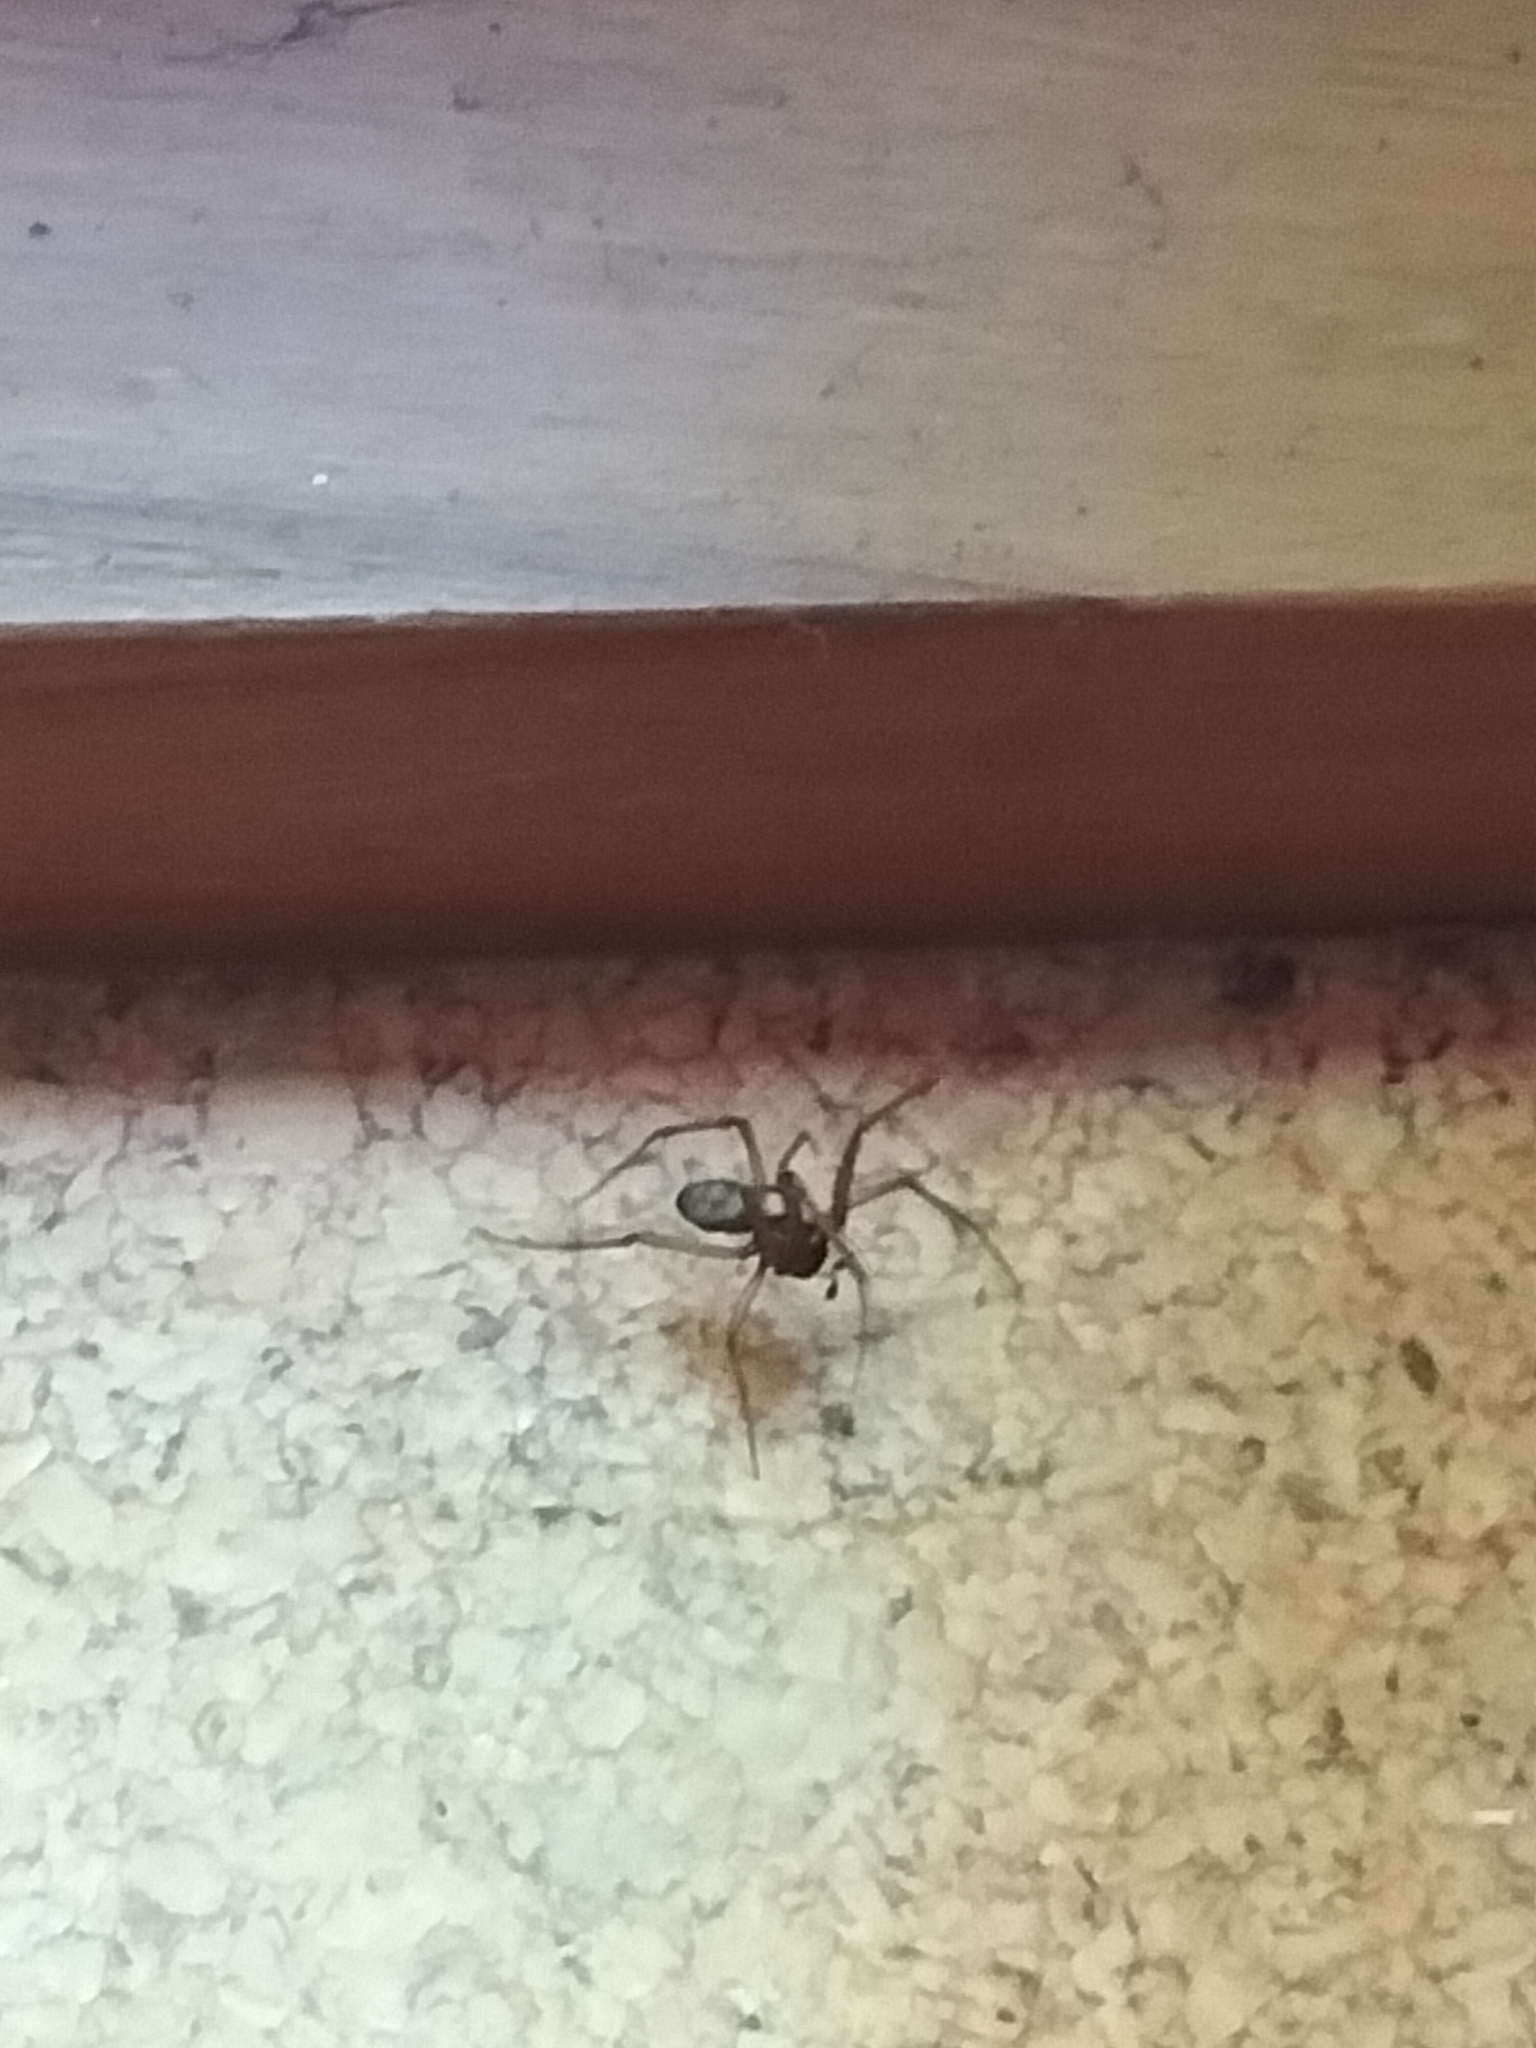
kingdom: Animalia
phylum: Arthropoda
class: Arachnida
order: Araneae
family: Theridiidae
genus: Steatoda
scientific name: Steatoda grossa
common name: False black widow
